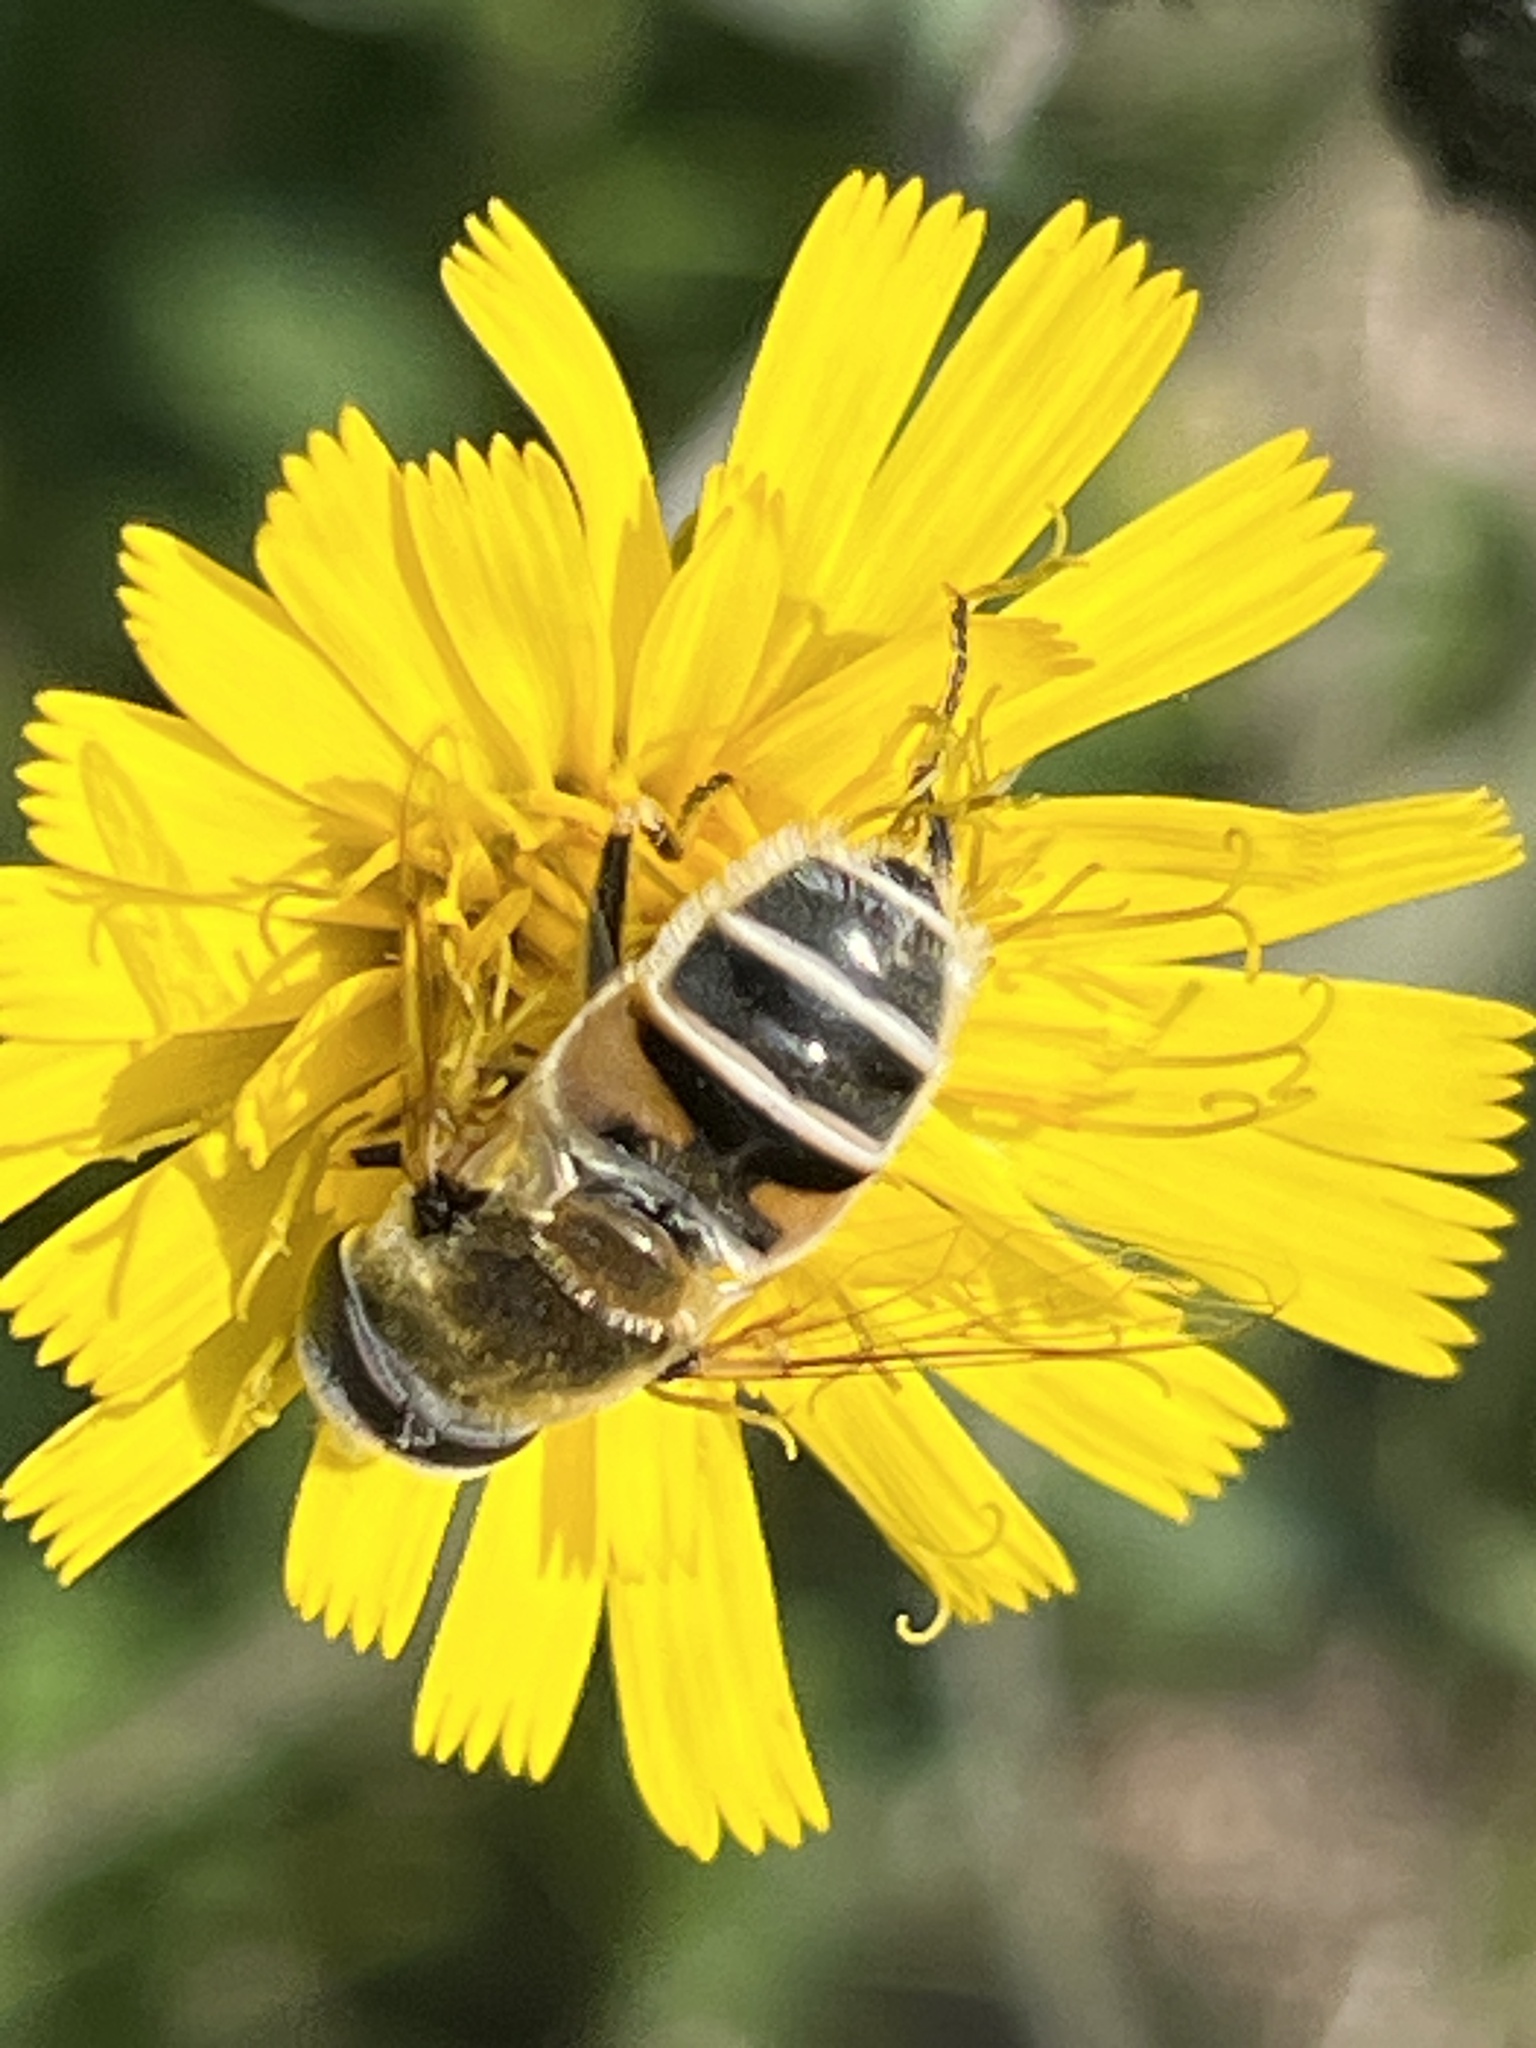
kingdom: Animalia
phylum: Arthropoda
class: Insecta
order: Diptera
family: Syrphidae
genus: Eristalis
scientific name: Eristalis stipator
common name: Yellow-shouldered drone fly
